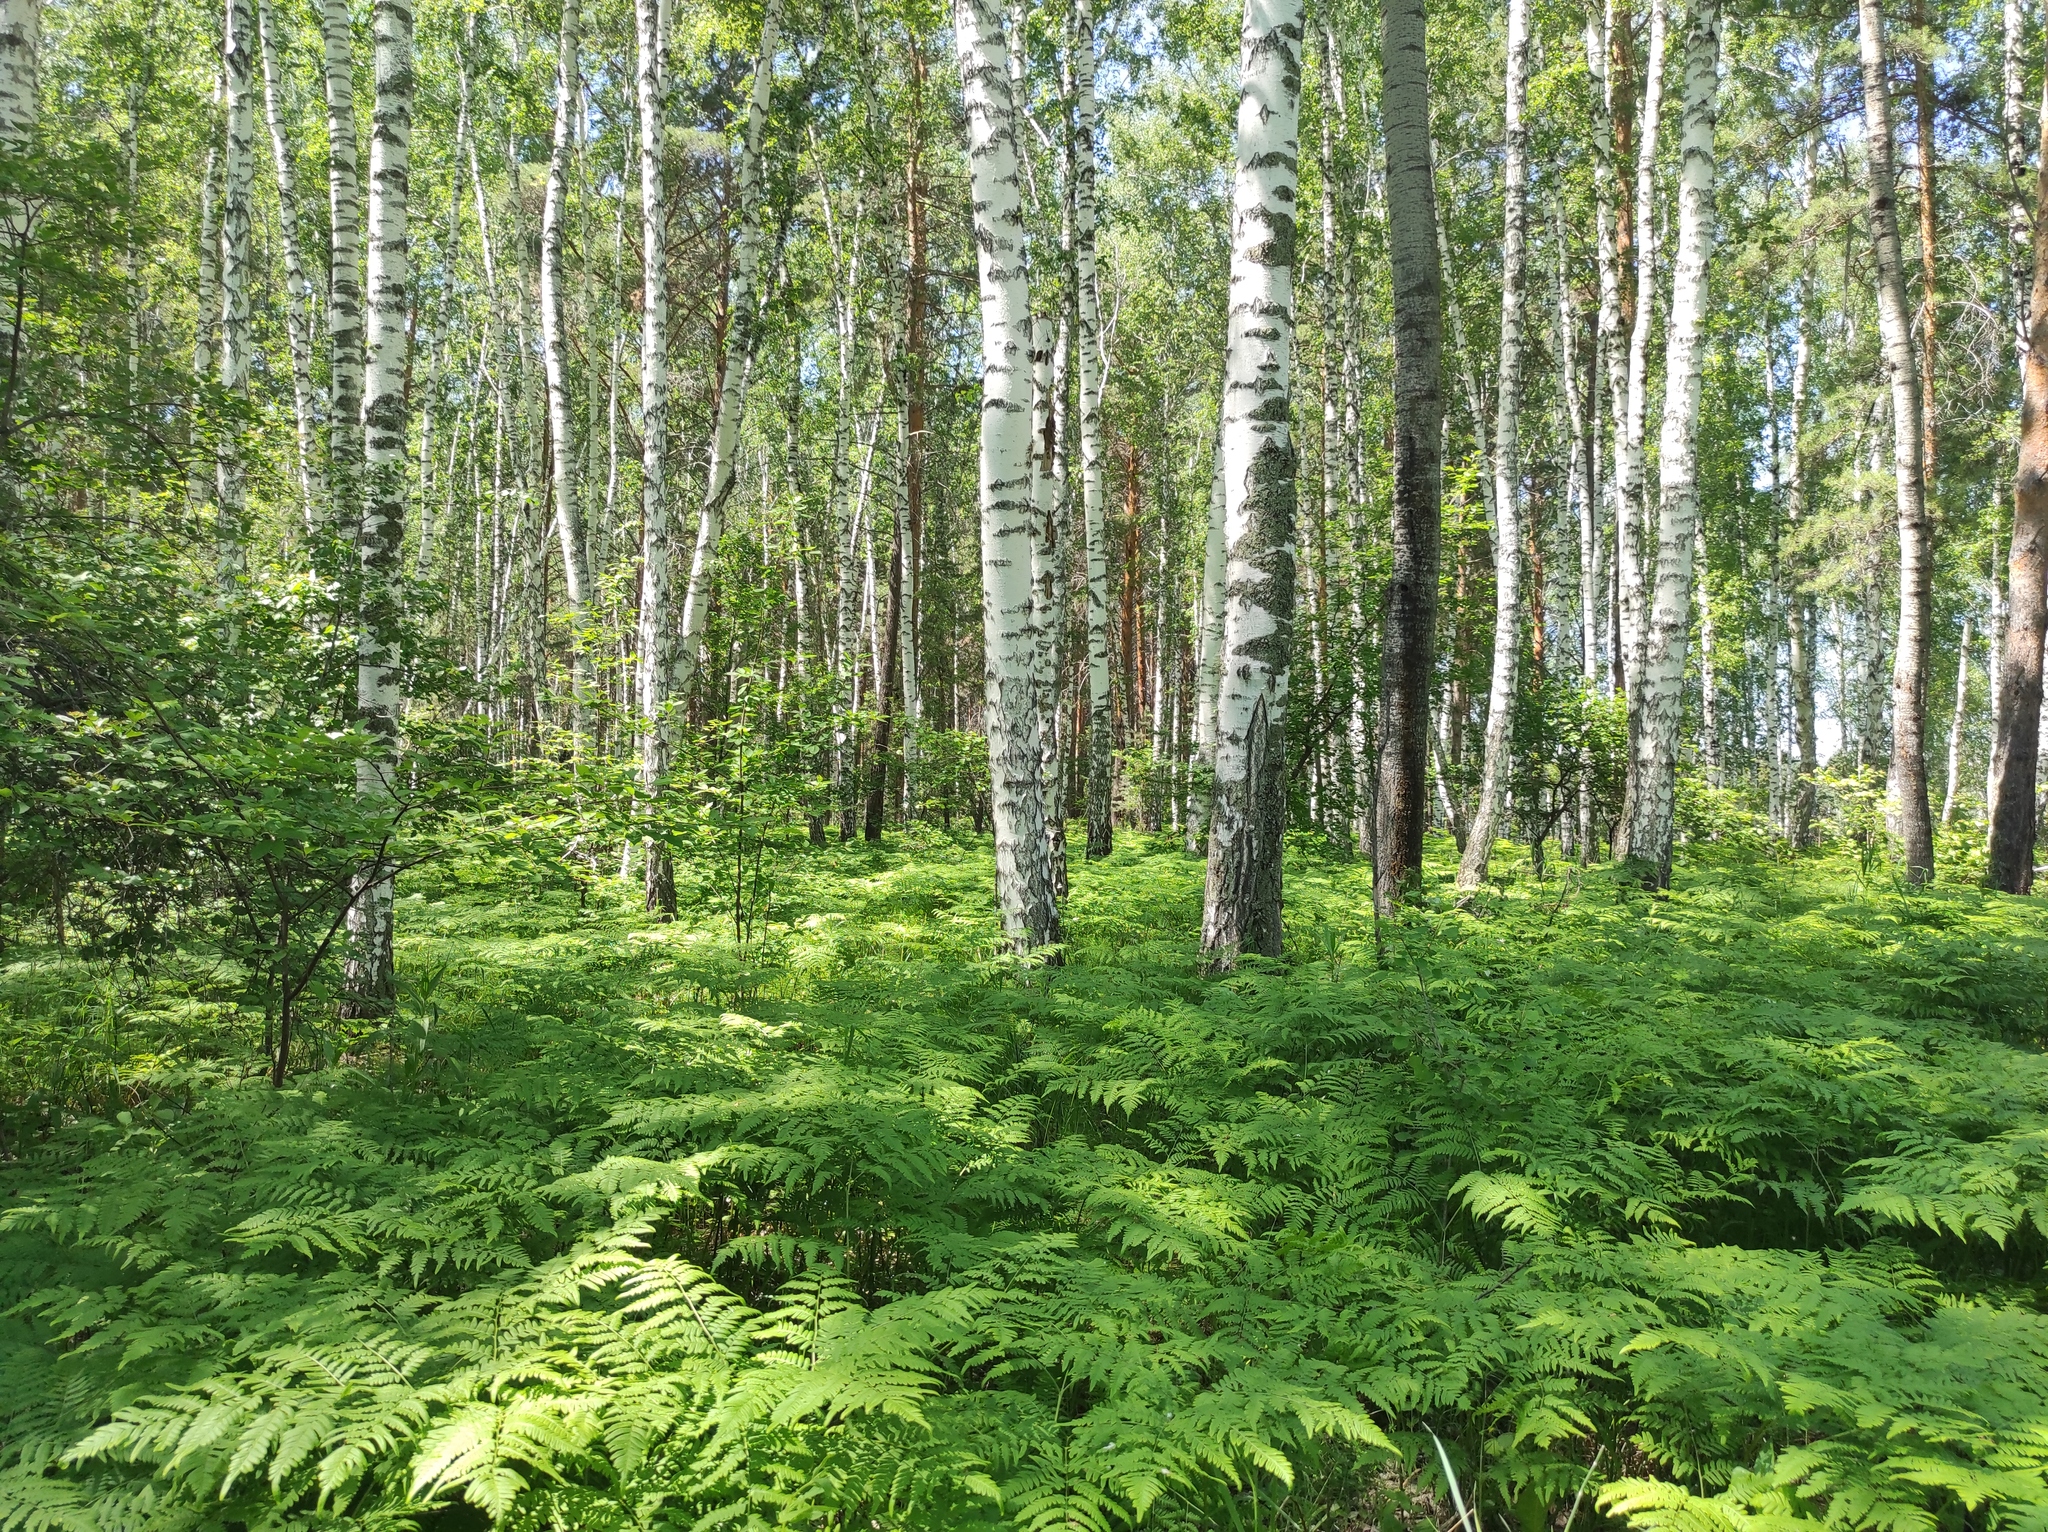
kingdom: Plantae
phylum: Tracheophyta
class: Polypodiopsida
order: Polypodiales
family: Dennstaedtiaceae
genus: Pteridium
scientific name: Pteridium aquilinum
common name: Bracken
